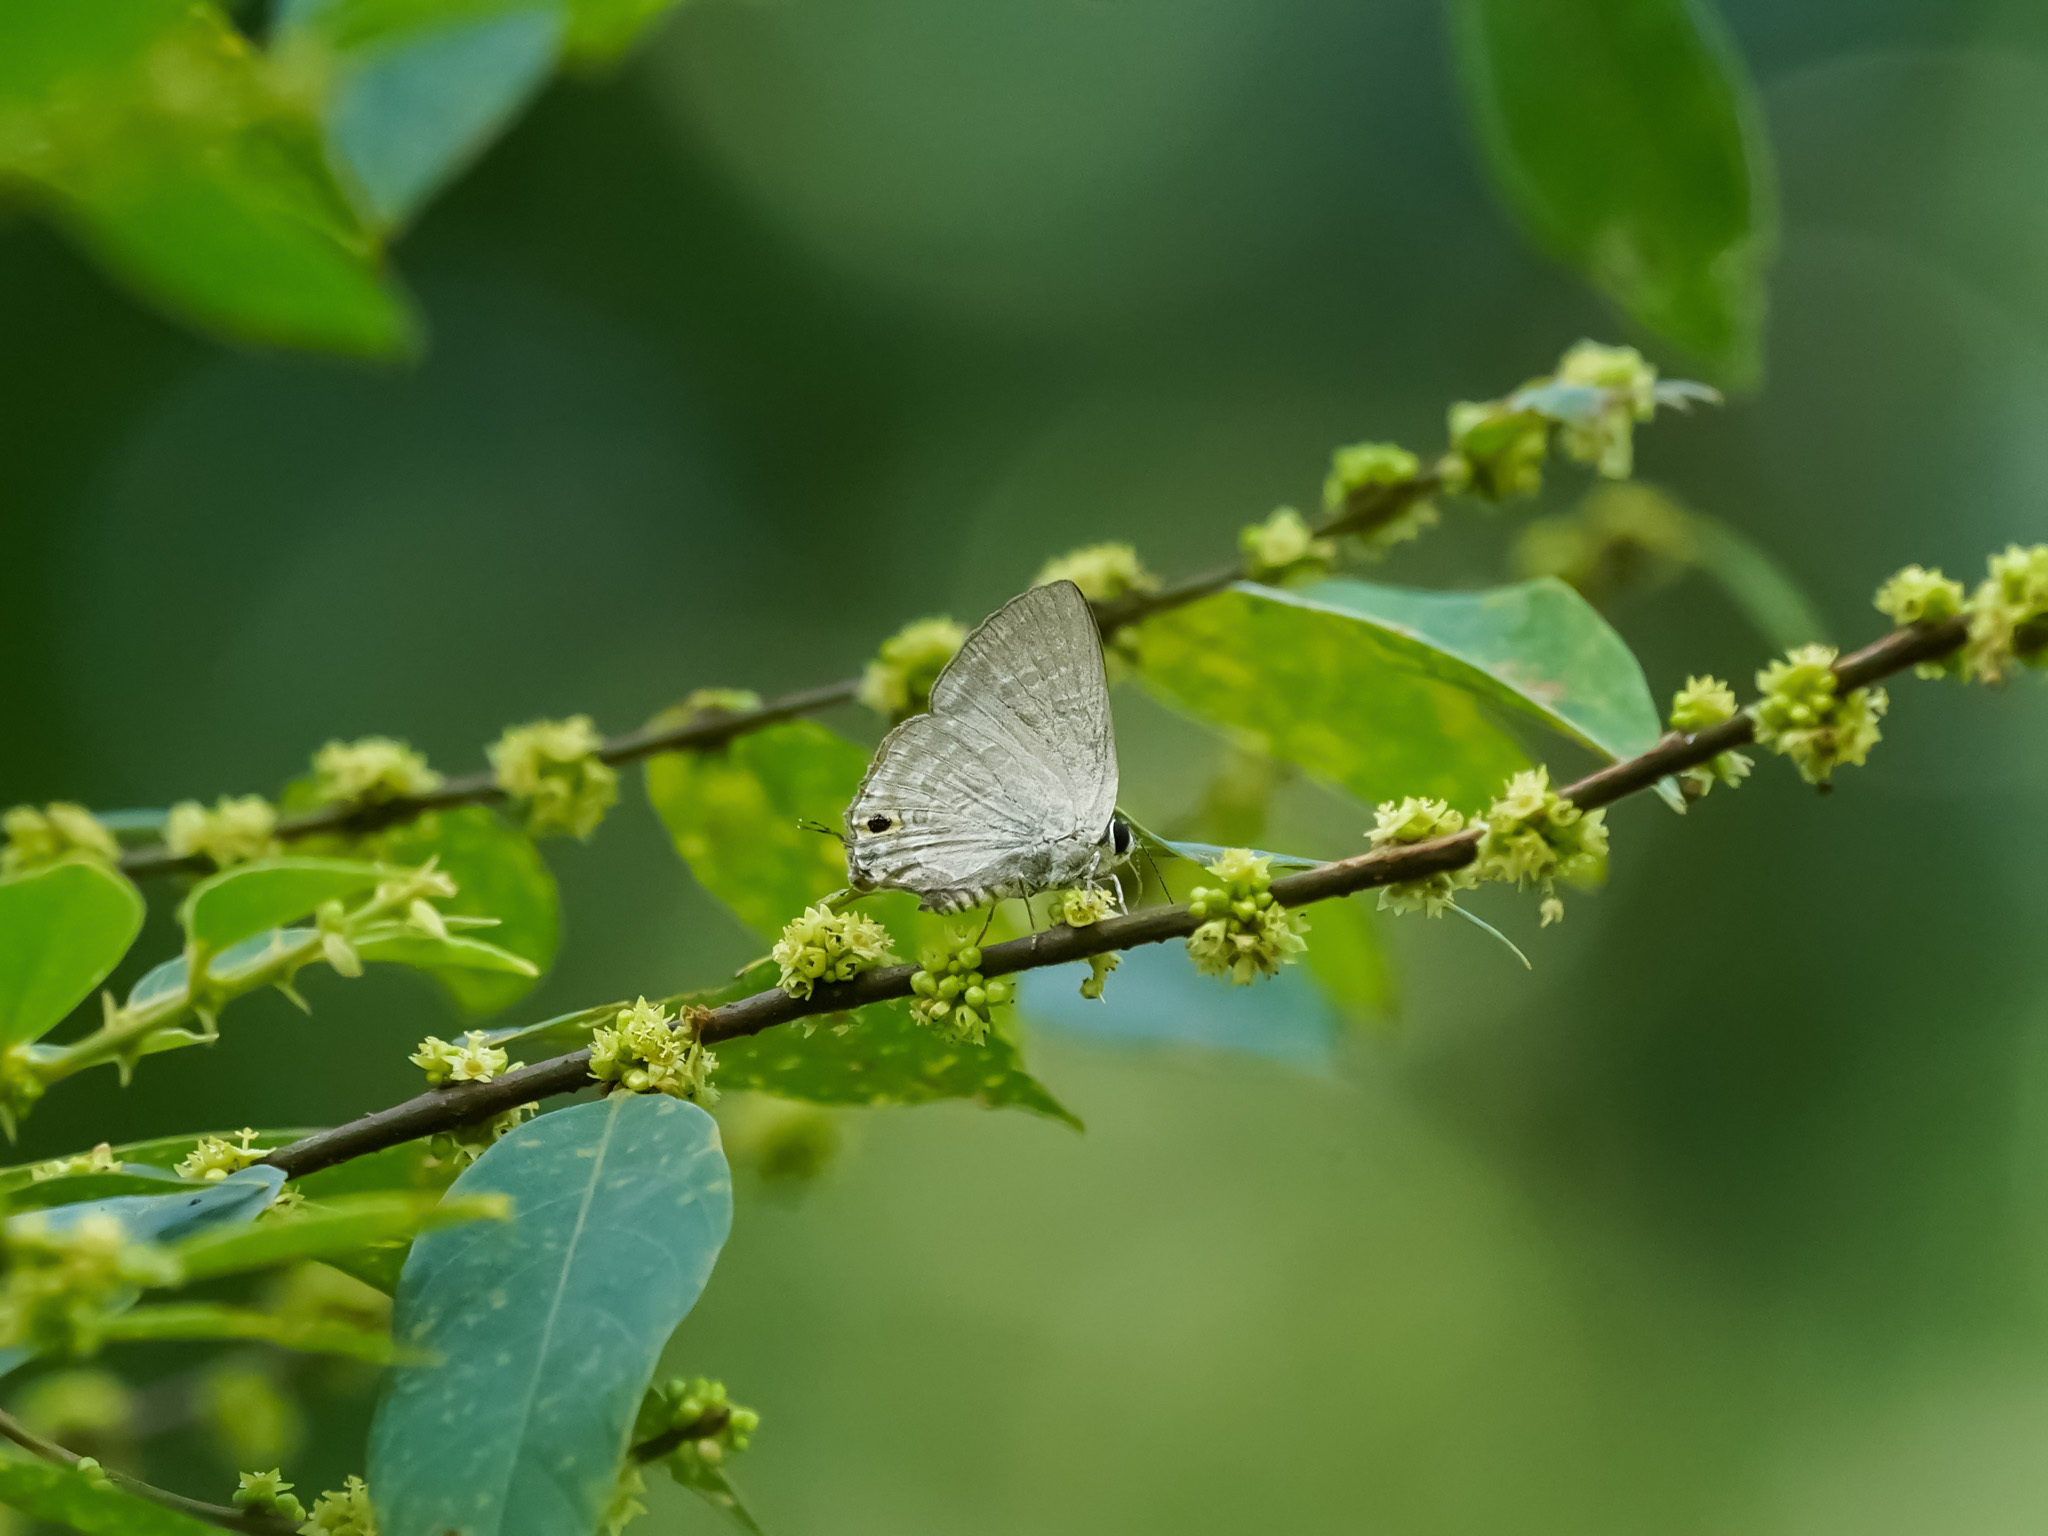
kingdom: Animalia
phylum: Arthropoda
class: Insecta
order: Lepidoptera
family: Lycaenidae
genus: Deudorix
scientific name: Deudorix elioti
